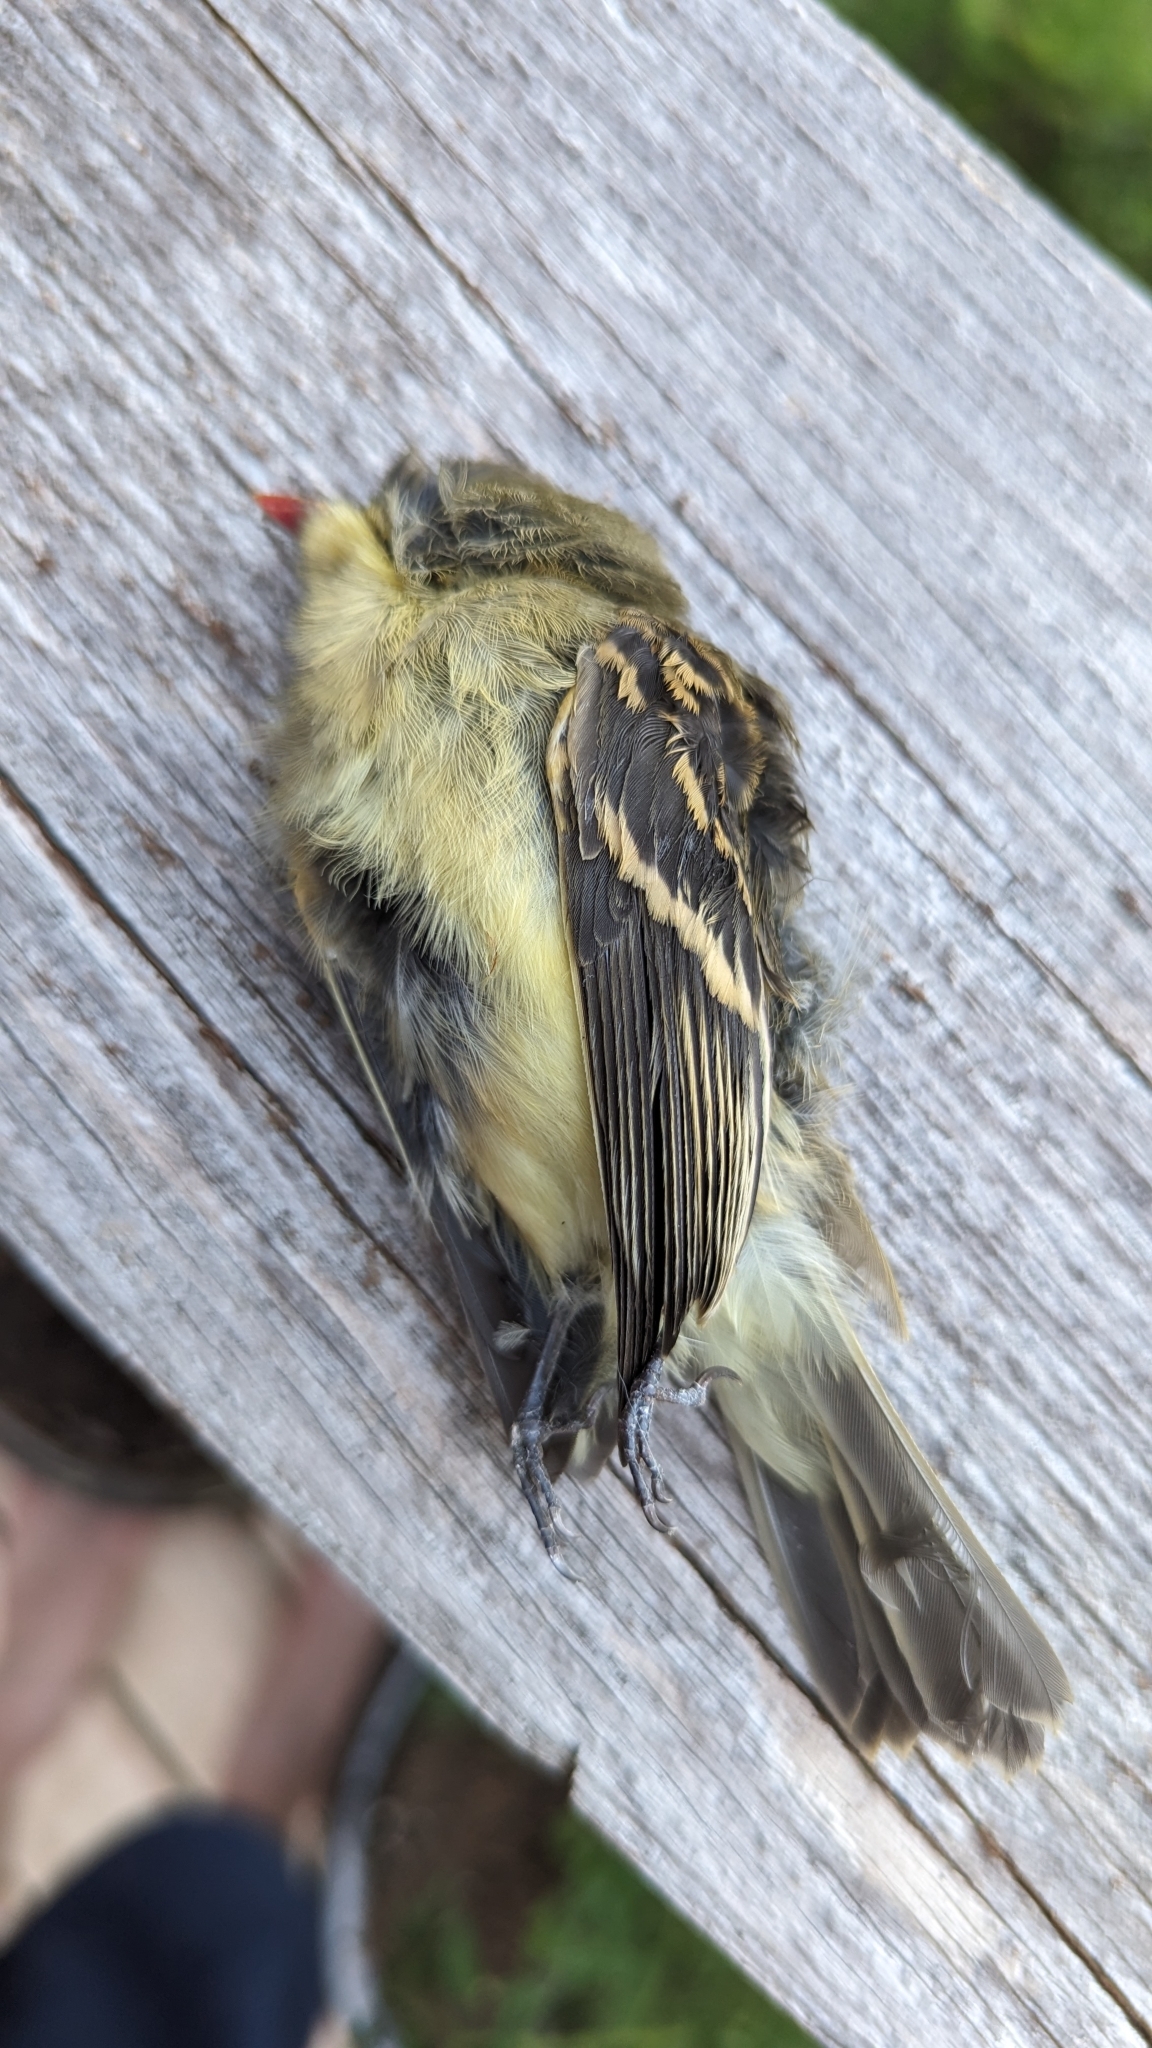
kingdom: Animalia
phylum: Chordata
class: Aves
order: Passeriformes
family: Tyrannidae
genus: Empidonax
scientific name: Empidonax difficilis
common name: Pacific-slope flycatcher
